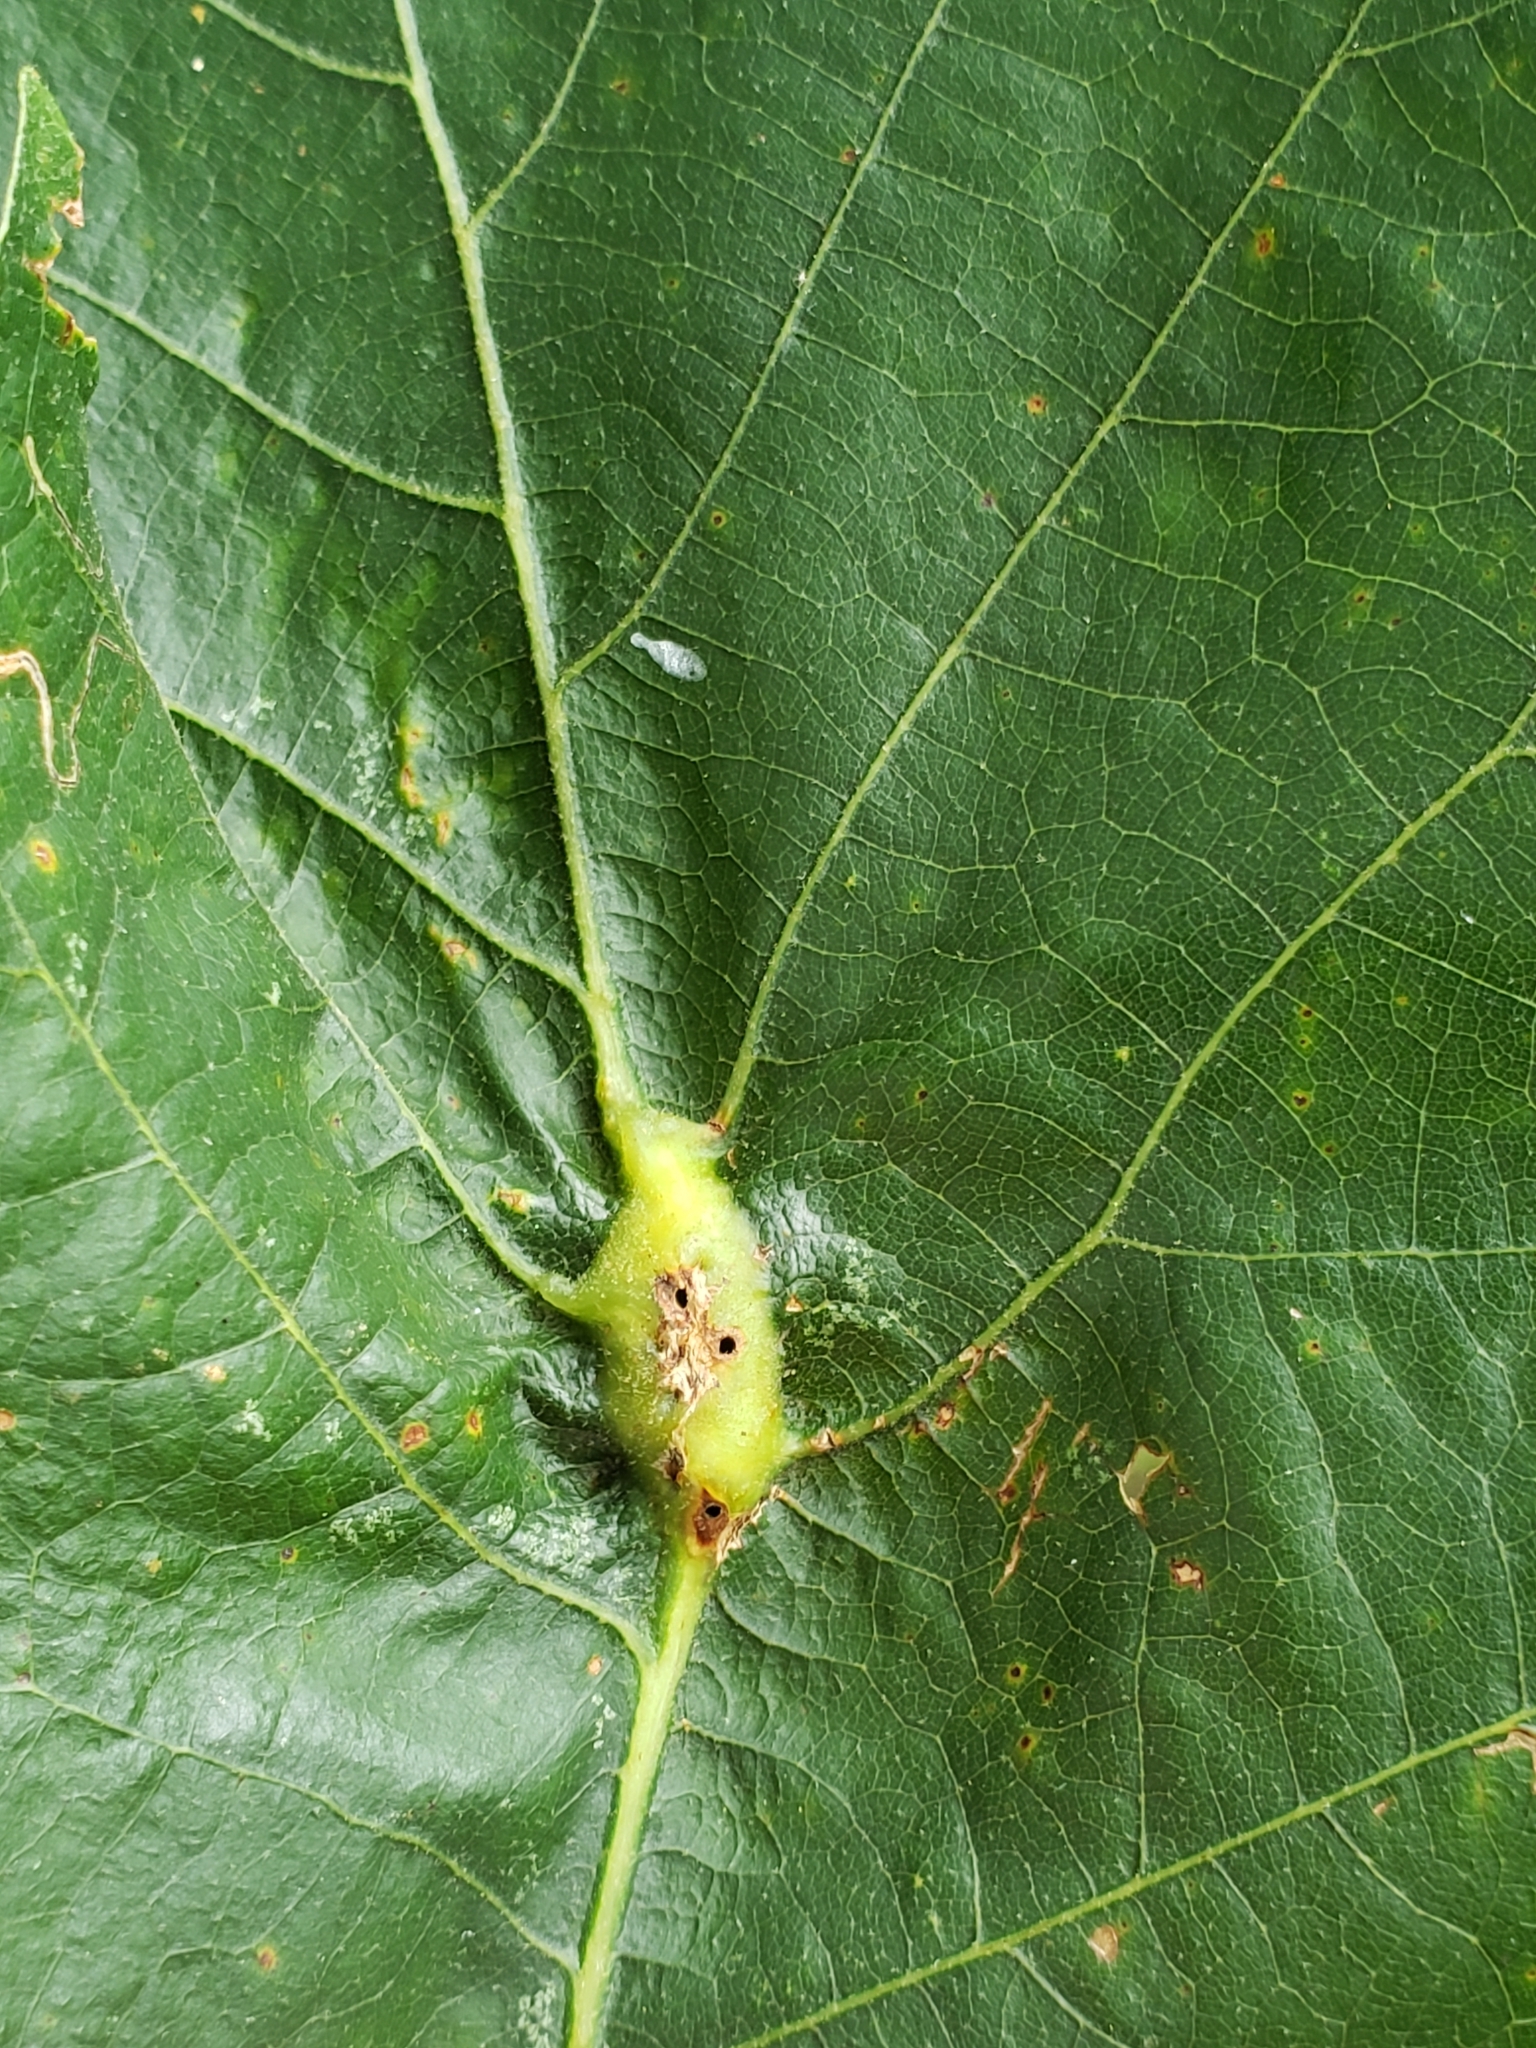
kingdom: Animalia
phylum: Arthropoda
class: Insecta
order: Hymenoptera
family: Cynipidae
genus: Bassettia
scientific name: Bassettia flavipes
